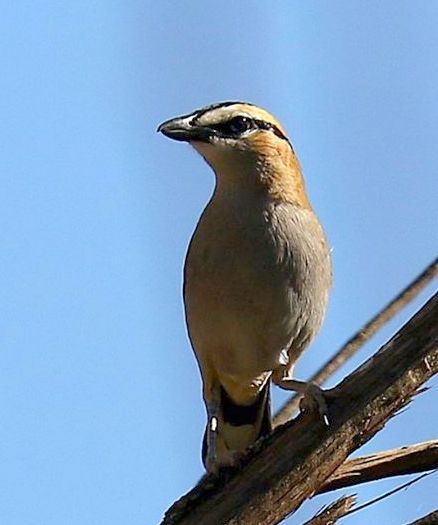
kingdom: Animalia
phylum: Chordata
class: Aves
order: Passeriformes
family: Malaconotidae
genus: Tchagra
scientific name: Tchagra senegalus
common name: Black-crowned tchagra
